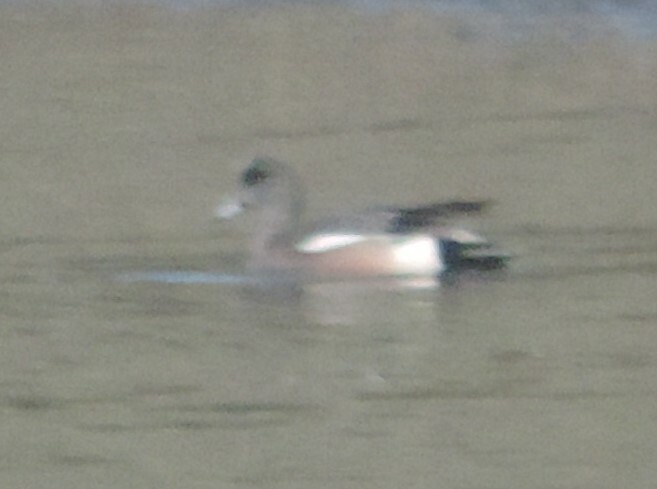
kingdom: Animalia
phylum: Chordata
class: Aves
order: Anseriformes
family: Anatidae
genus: Mareca
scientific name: Mareca americana
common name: American wigeon
